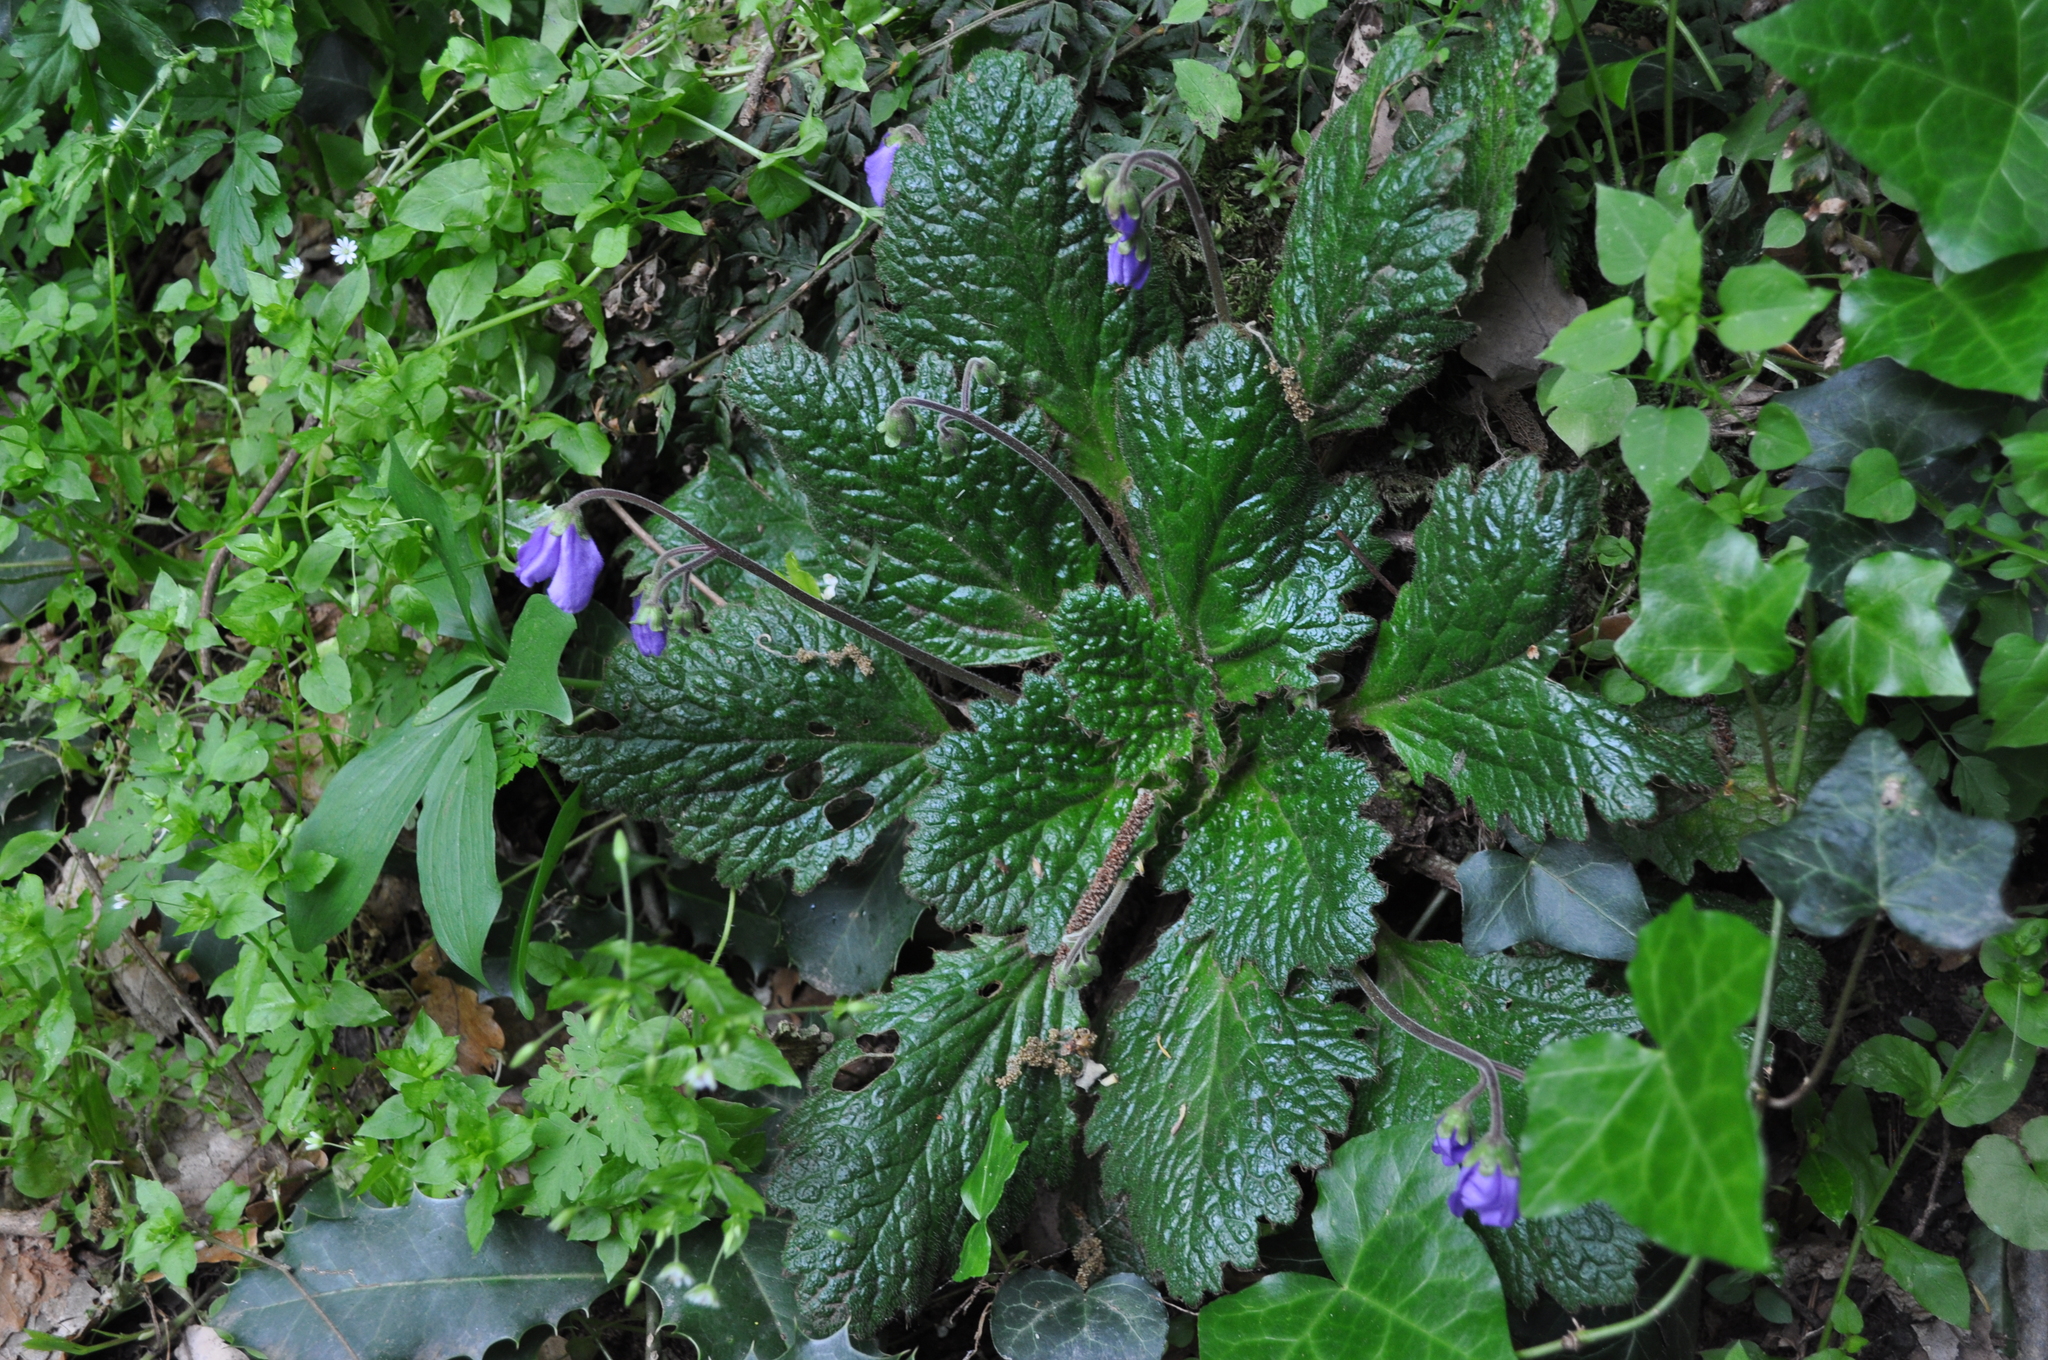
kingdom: Plantae
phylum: Tracheophyta
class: Magnoliopsida
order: Lamiales
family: Gesneriaceae
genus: Ramonda
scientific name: Ramonda myconi
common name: Pyrenean-violet
